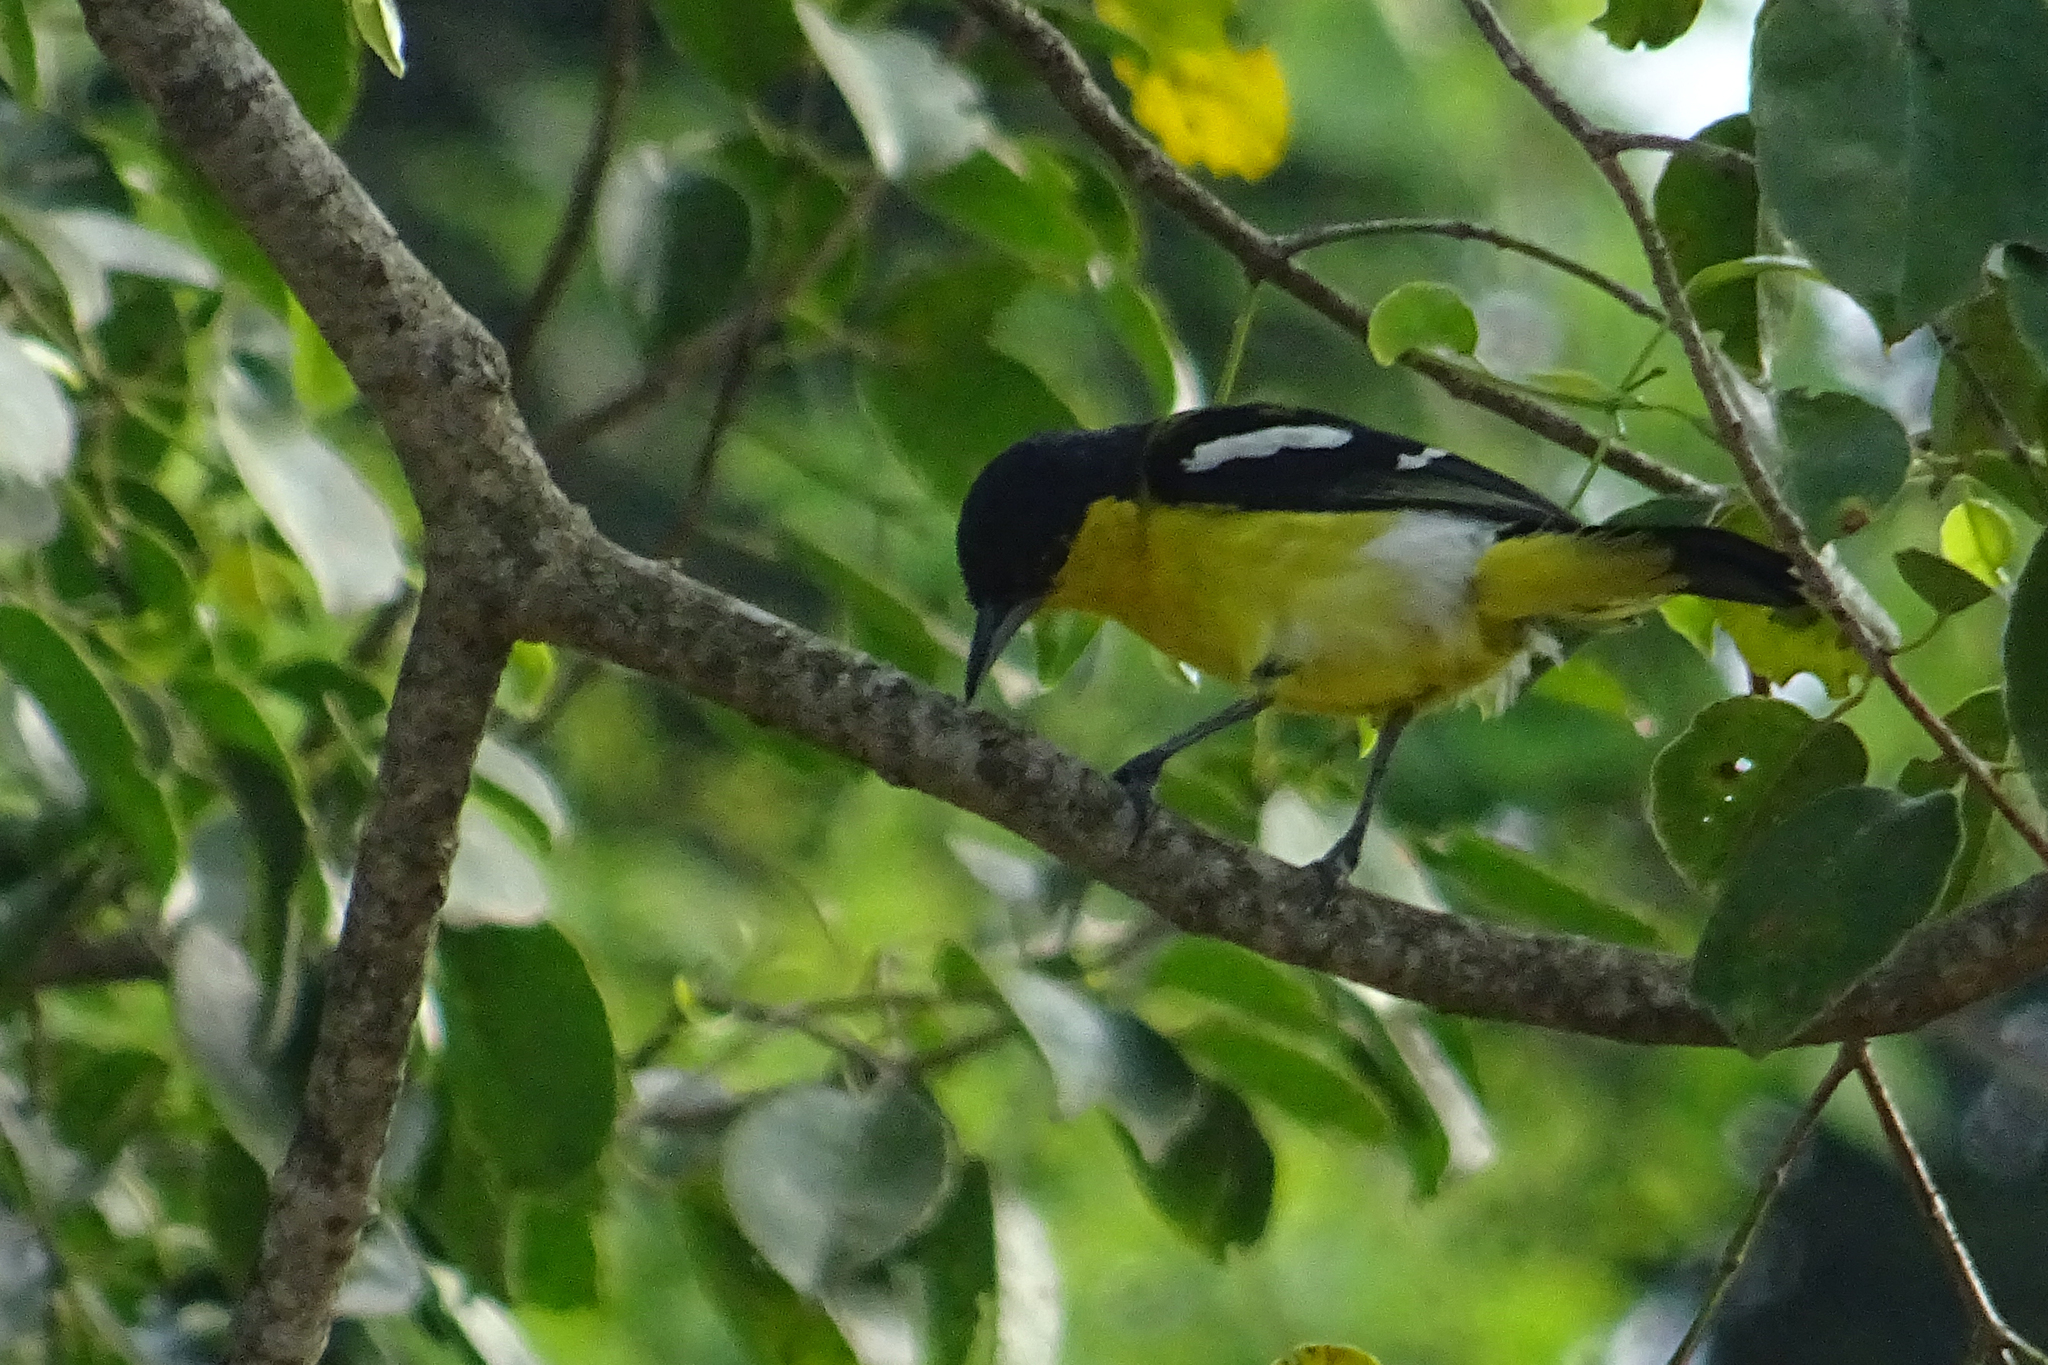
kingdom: Animalia
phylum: Chordata
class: Aves
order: Passeriformes
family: Aegithinidae
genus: Aegithina
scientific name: Aegithina tiphia
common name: Common iora
